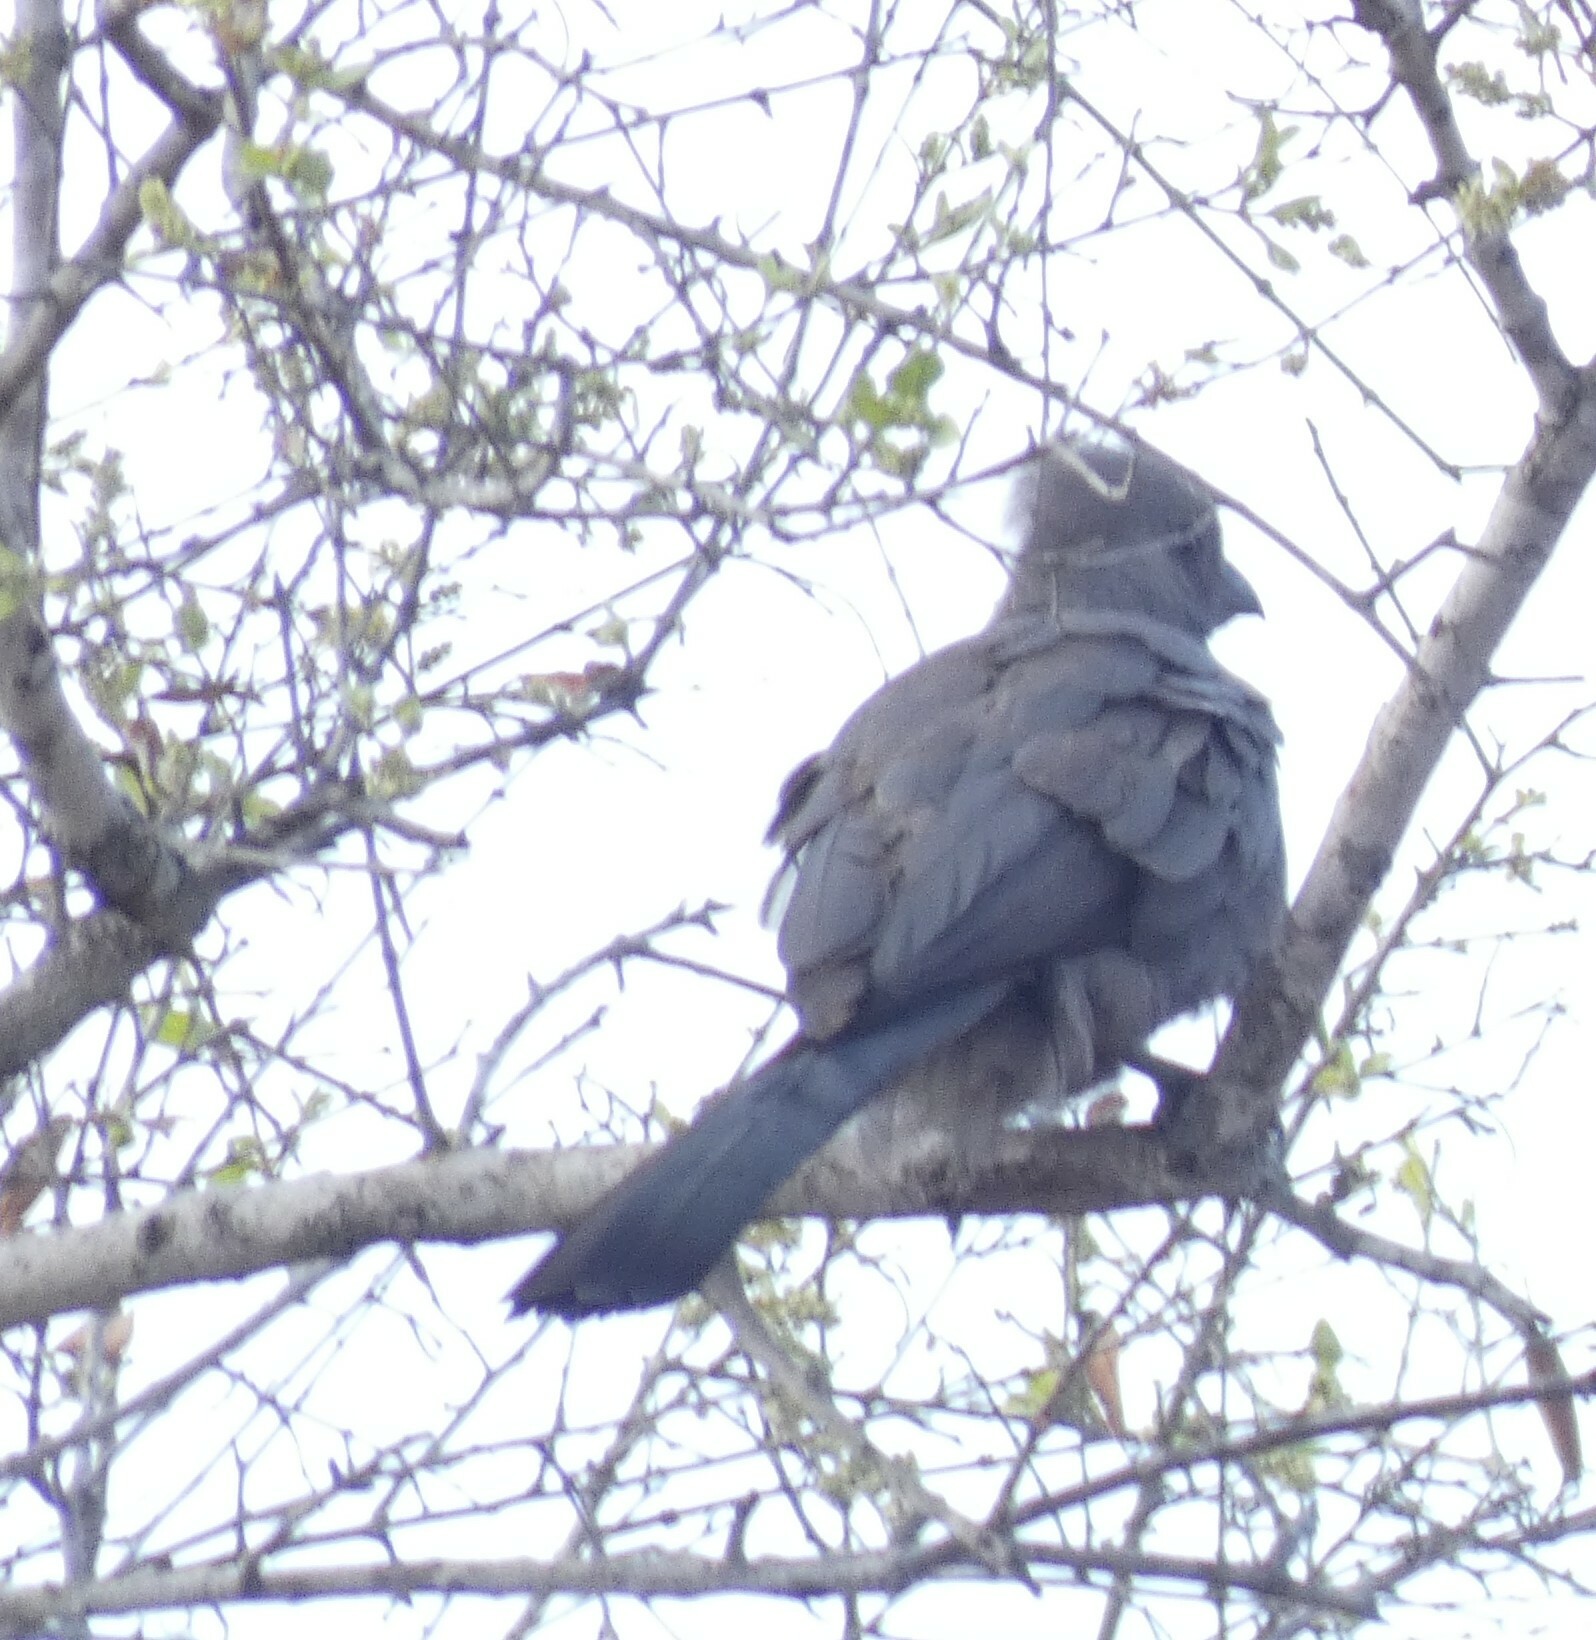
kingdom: Animalia
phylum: Chordata
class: Aves
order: Musophagiformes
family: Musophagidae
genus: Corythaixoides
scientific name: Corythaixoides concolor
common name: Grey go-away-bird
